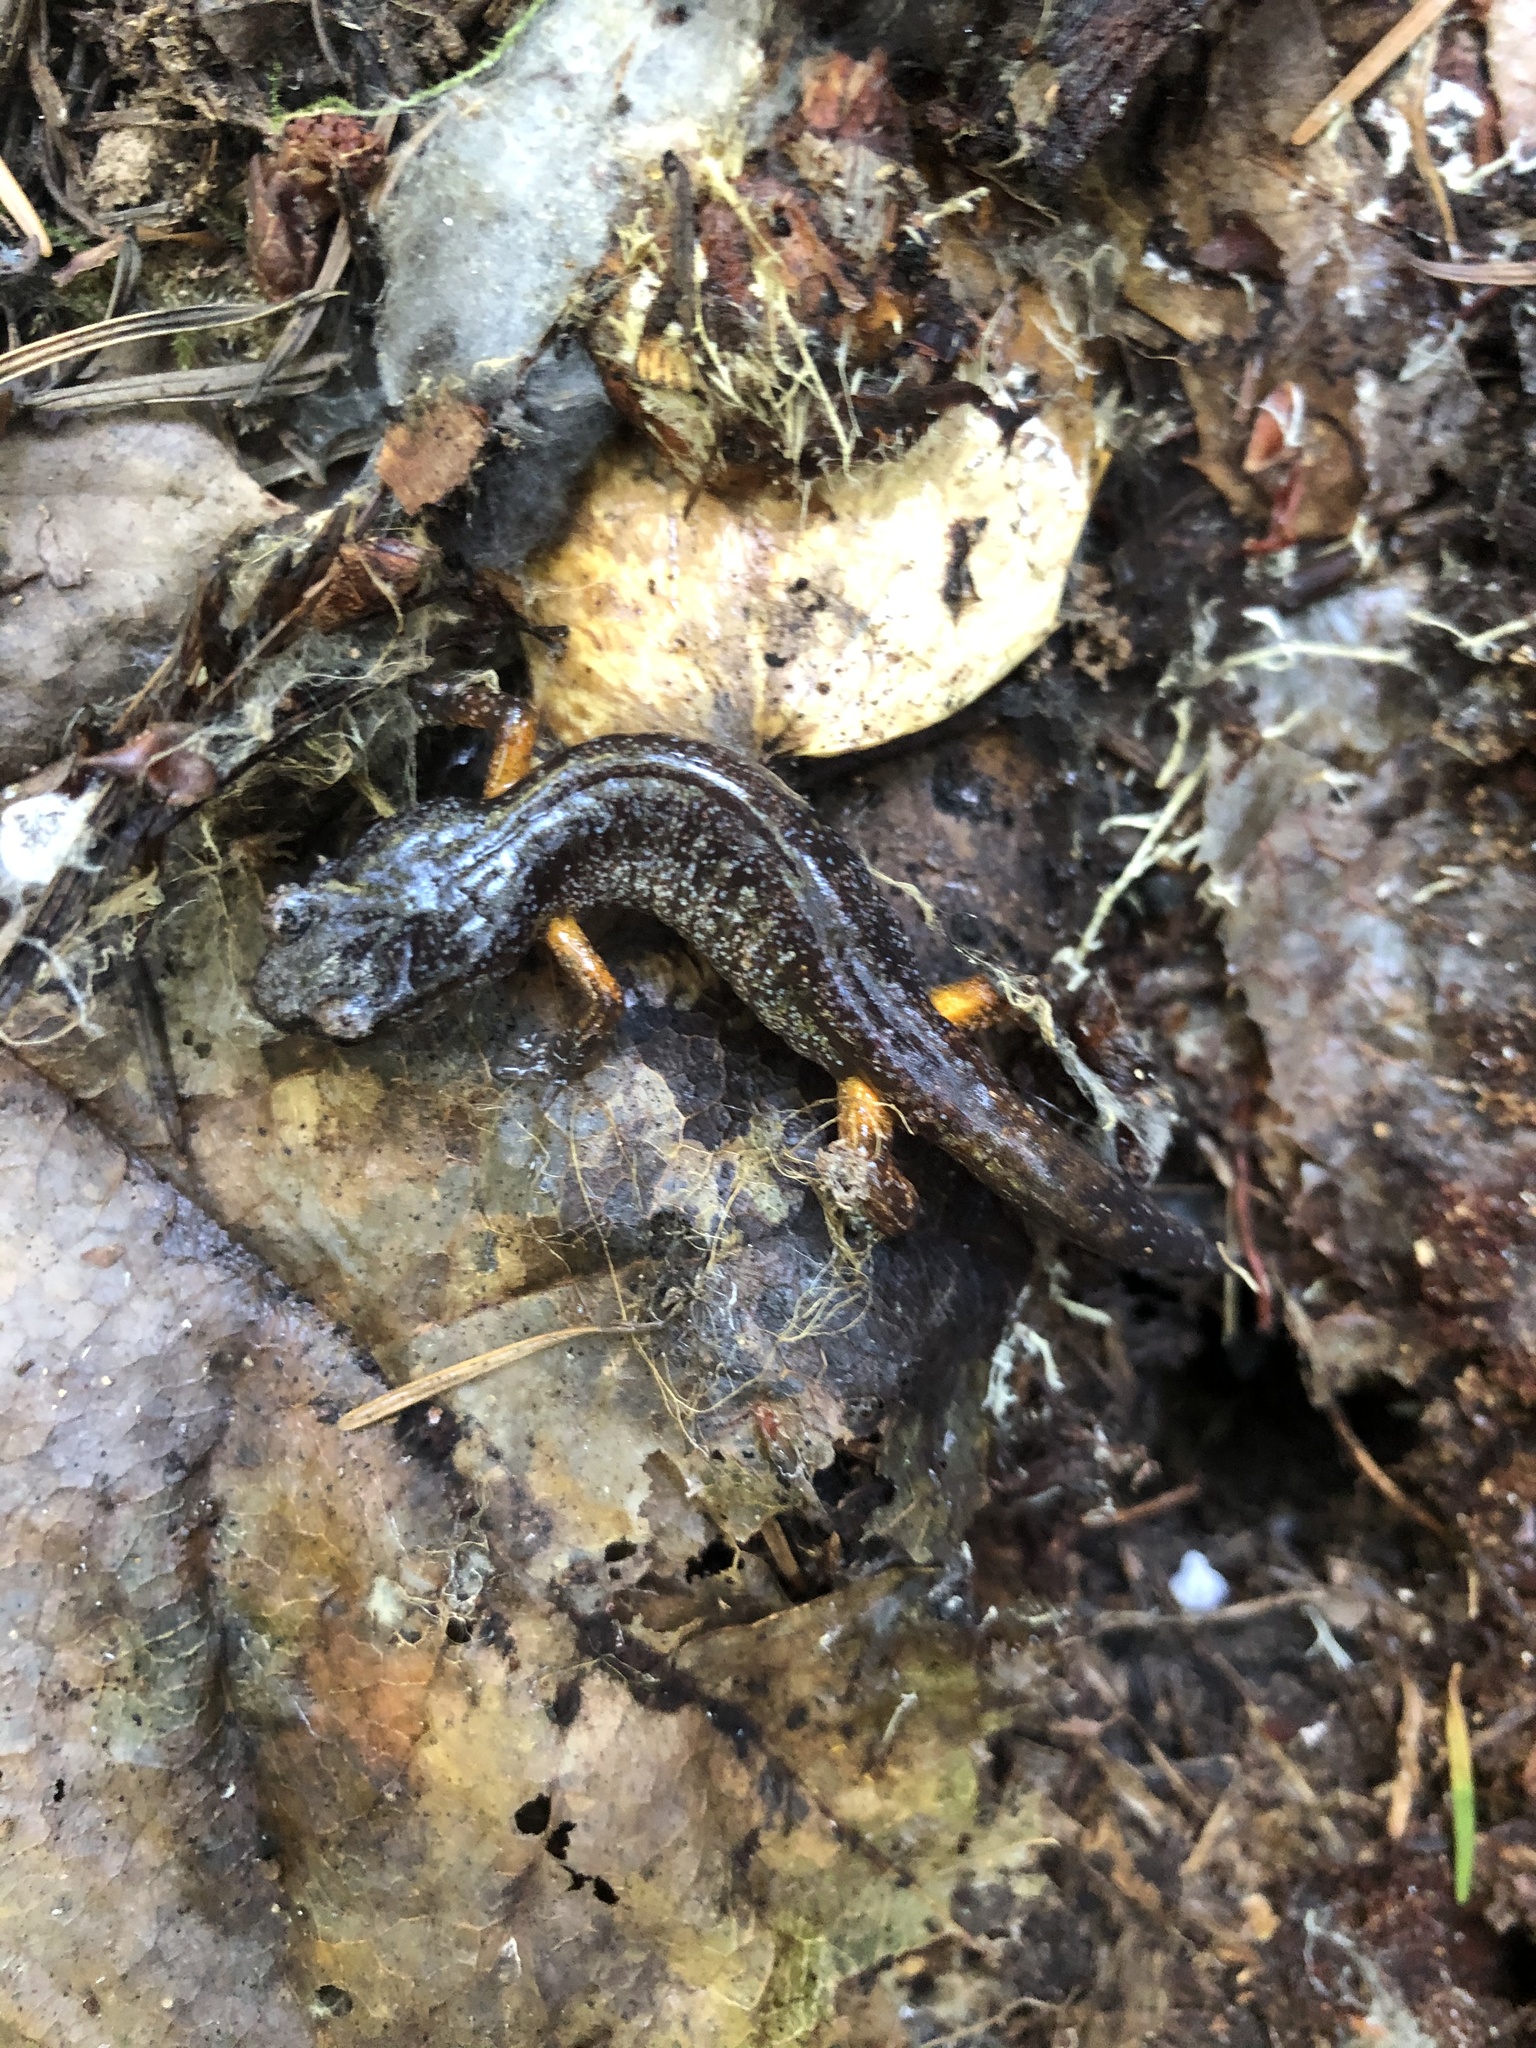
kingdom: Animalia
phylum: Chordata
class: Amphibia
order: Caudata
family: Plethodontidae
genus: Ensatina
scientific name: Ensatina eschscholtzii
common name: Ensatina
